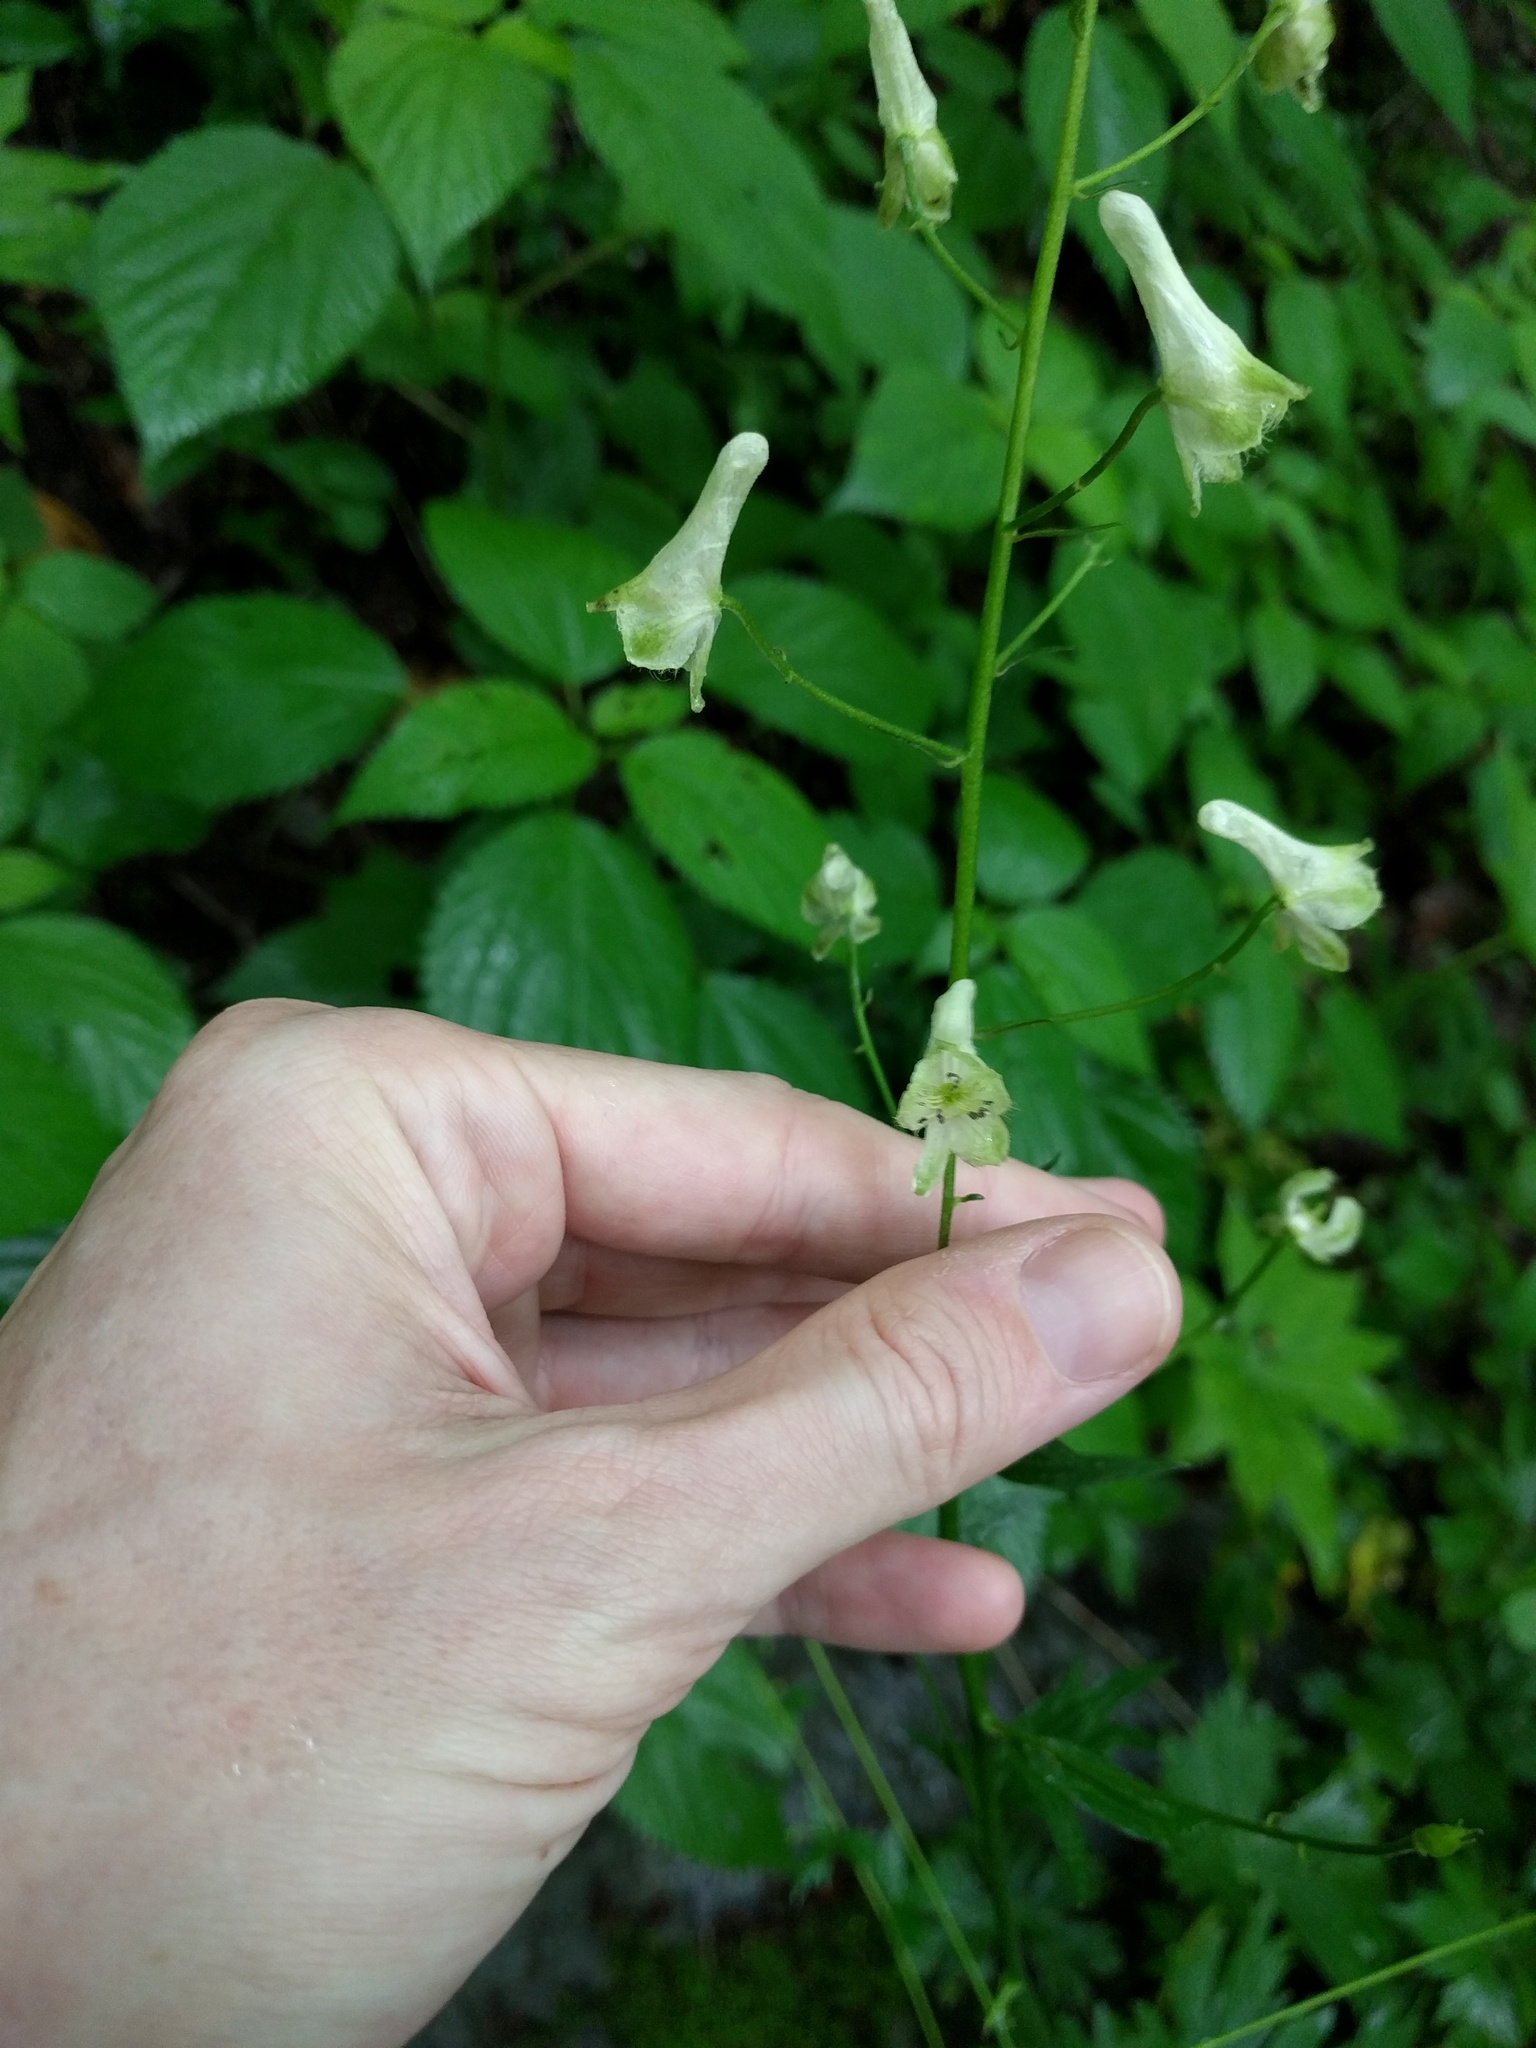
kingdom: Plantae
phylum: Tracheophyta
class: Magnoliopsida
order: Ranunculales
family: Ranunculaceae
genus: Aconitum
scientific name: Aconitum reclinatum
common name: Trailing wolfsbane
